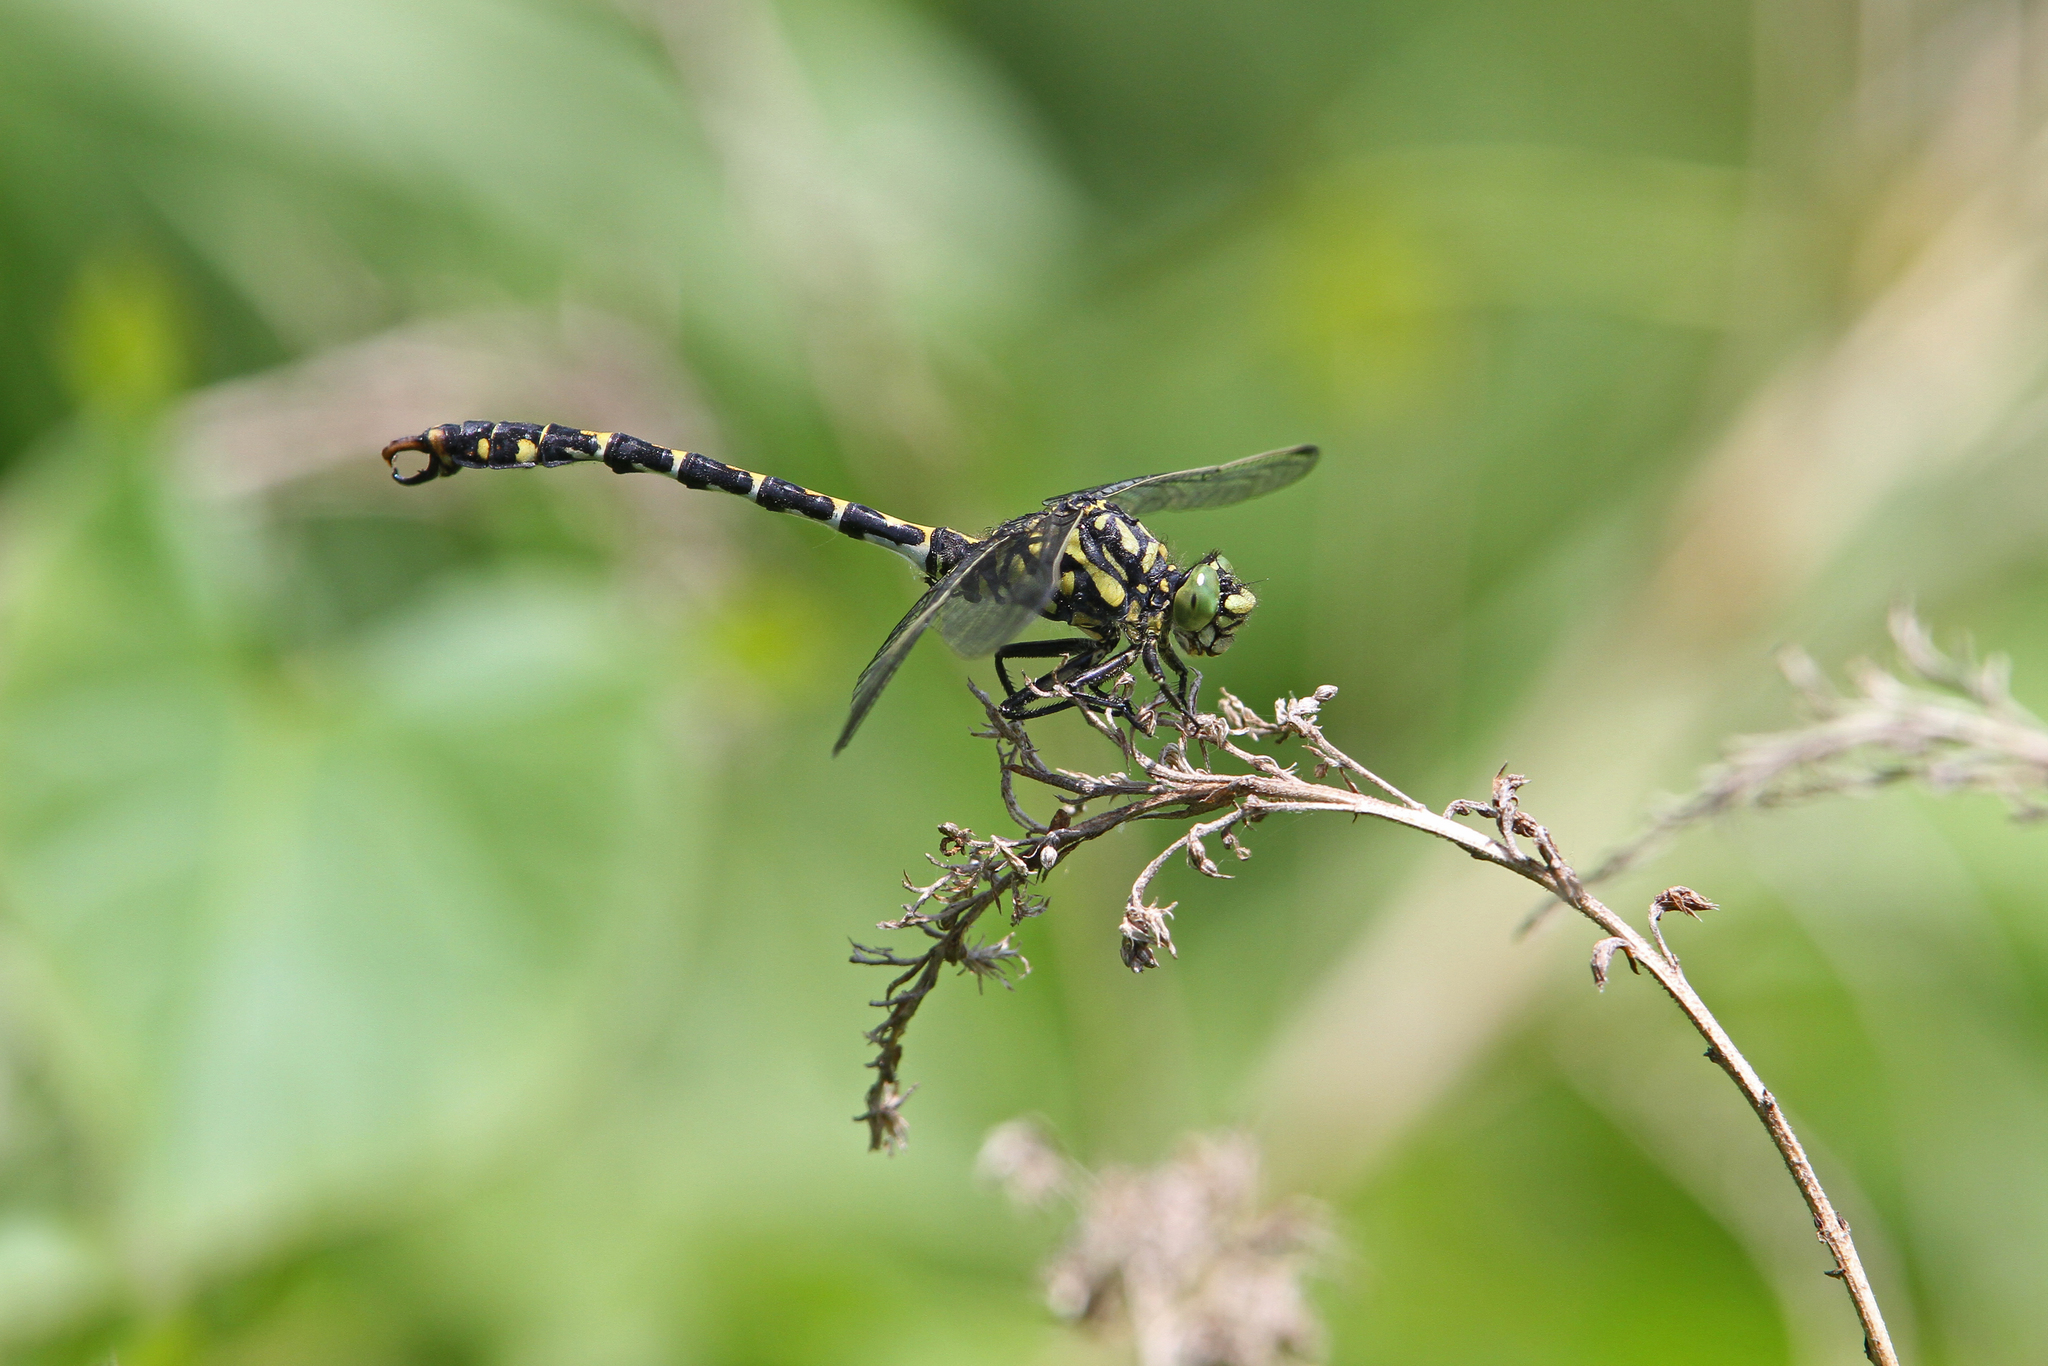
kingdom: Animalia
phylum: Arthropoda
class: Insecta
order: Odonata
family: Gomphidae
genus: Onychogomphus
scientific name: Onychogomphus forcipatus
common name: Small pincertail
